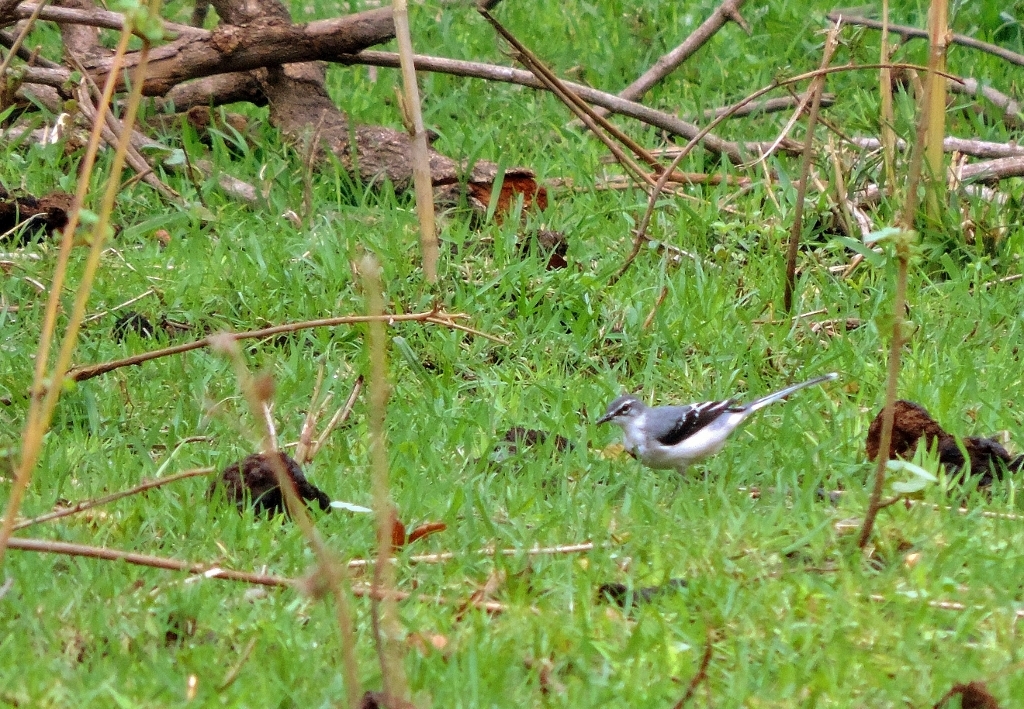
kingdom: Animalia
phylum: Chordata
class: Aves
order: Passeriformes
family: Motacillidae
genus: Motacilla
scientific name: Motacilla clara
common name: Mountain wagtail
